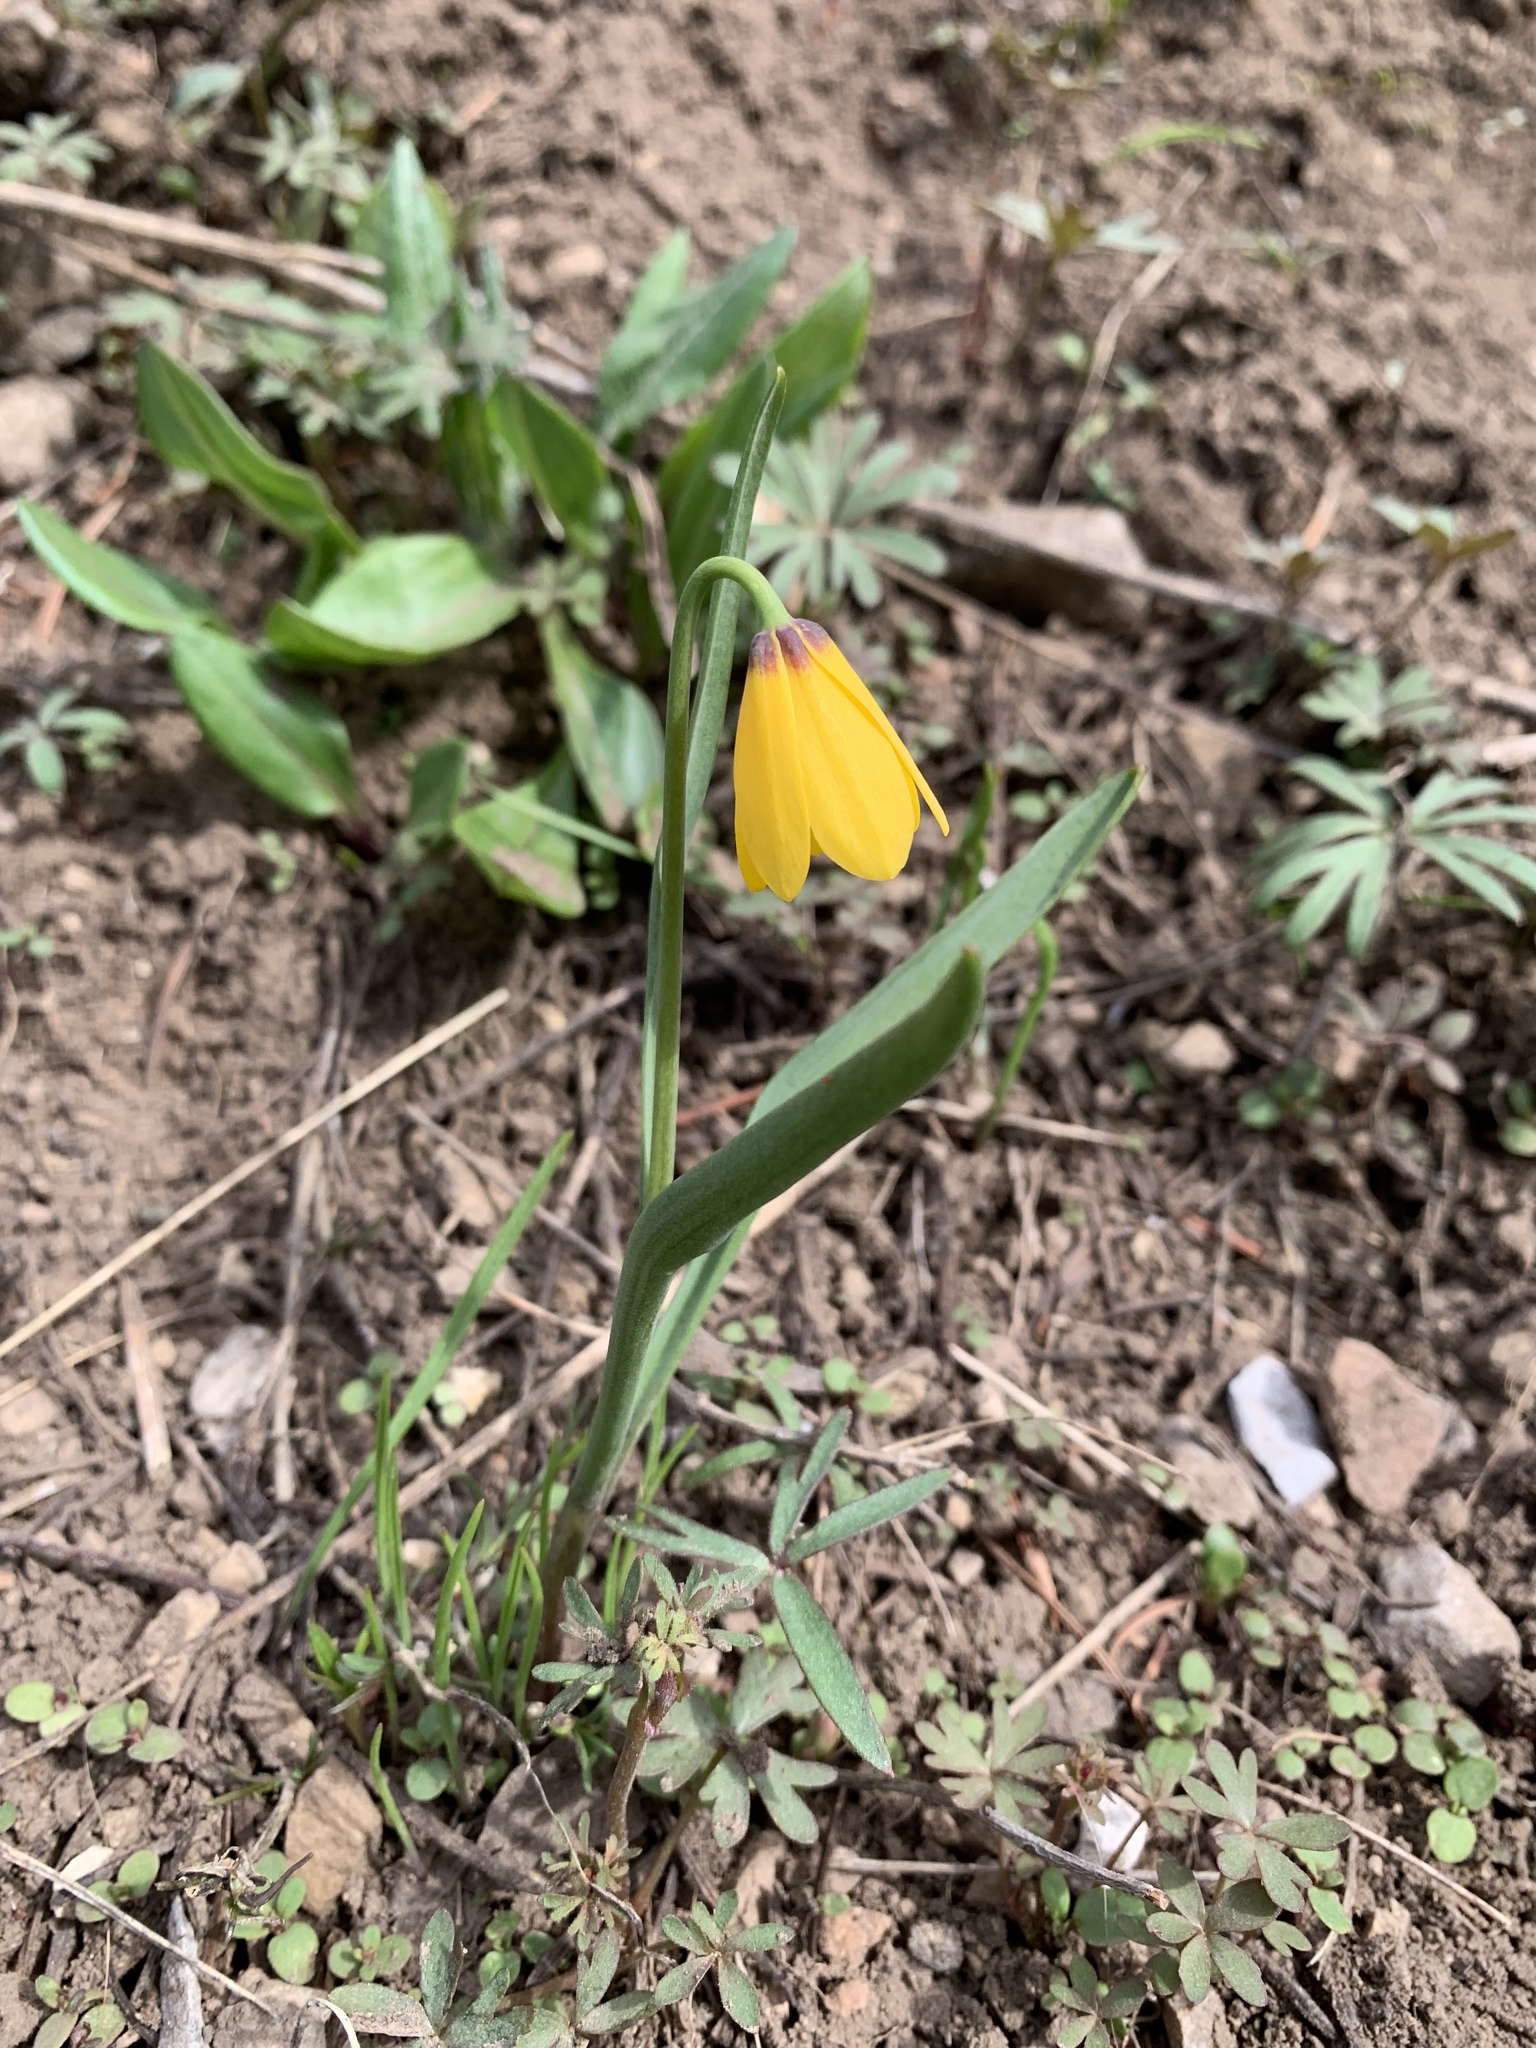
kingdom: Plantae
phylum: Tracheophyta
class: Liliopsida
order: Liliales
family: Liliaceae
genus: Fritillaria
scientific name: Fritillaria pudica
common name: Yellow fritillary
